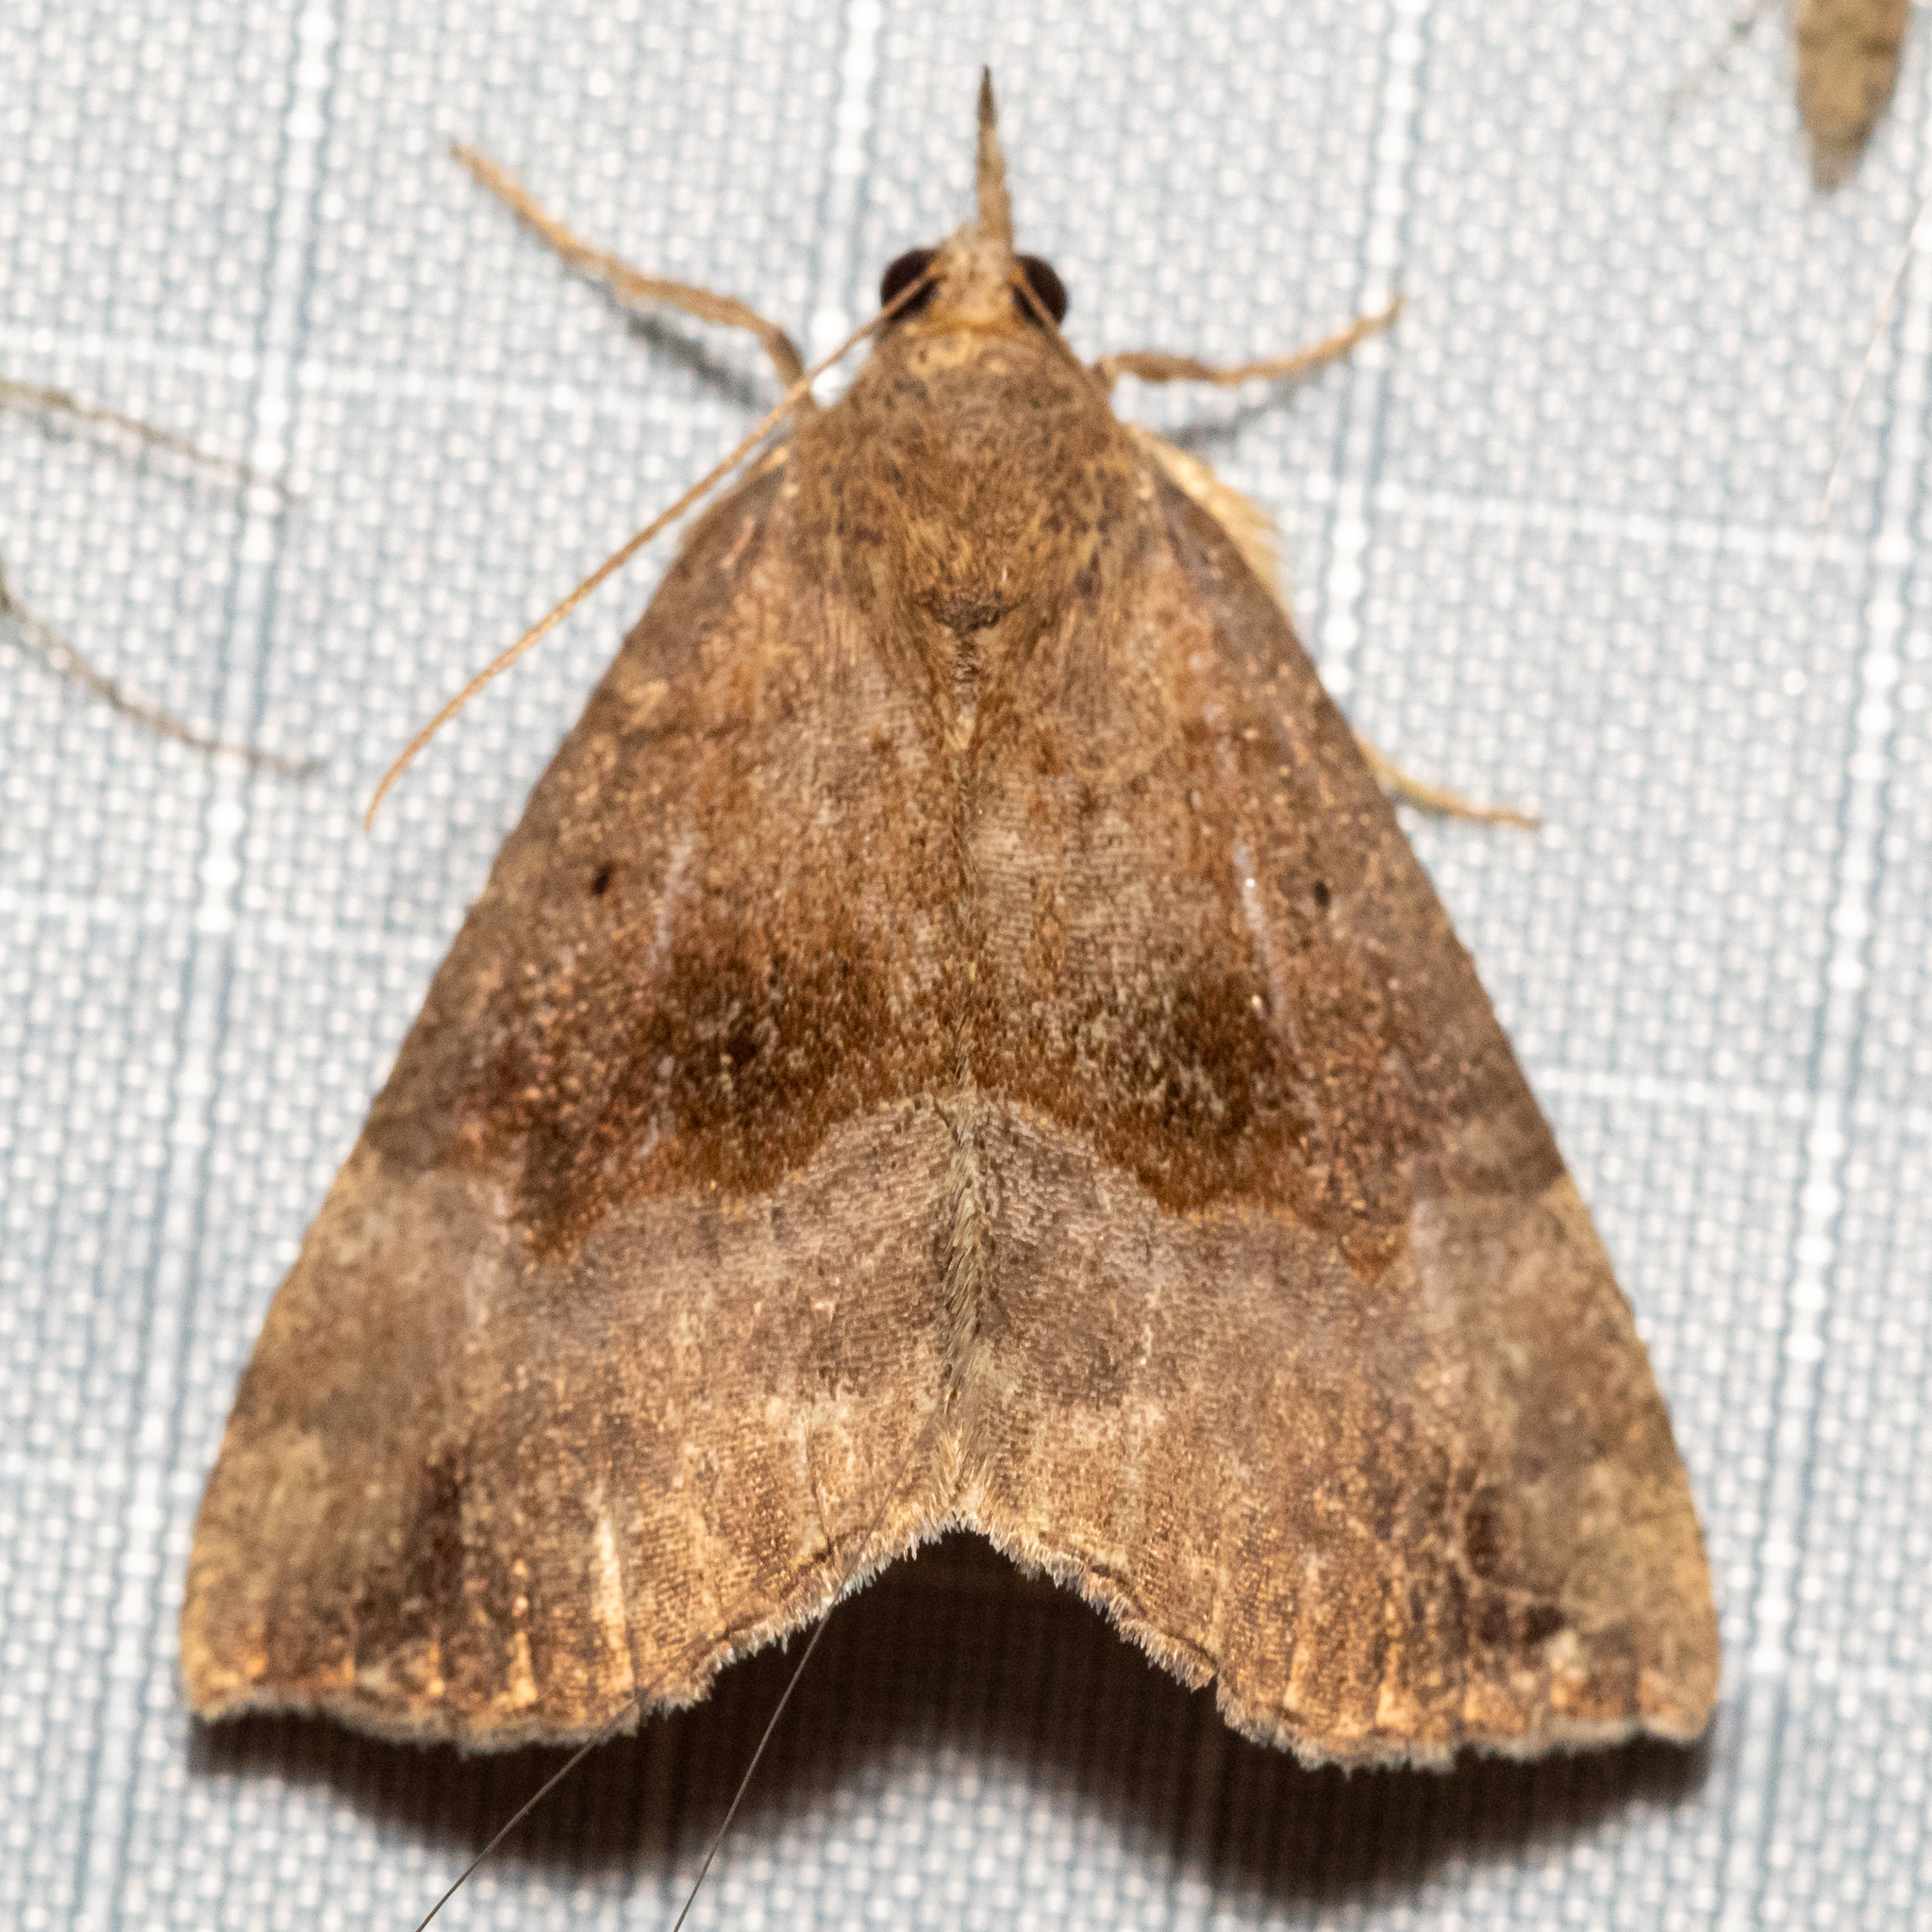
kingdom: Animalia
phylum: Arthropoda
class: Insecta
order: Lepidoptera
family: Erebidae
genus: Hypena
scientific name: Hypena madefactalis
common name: Gray-edged snout
